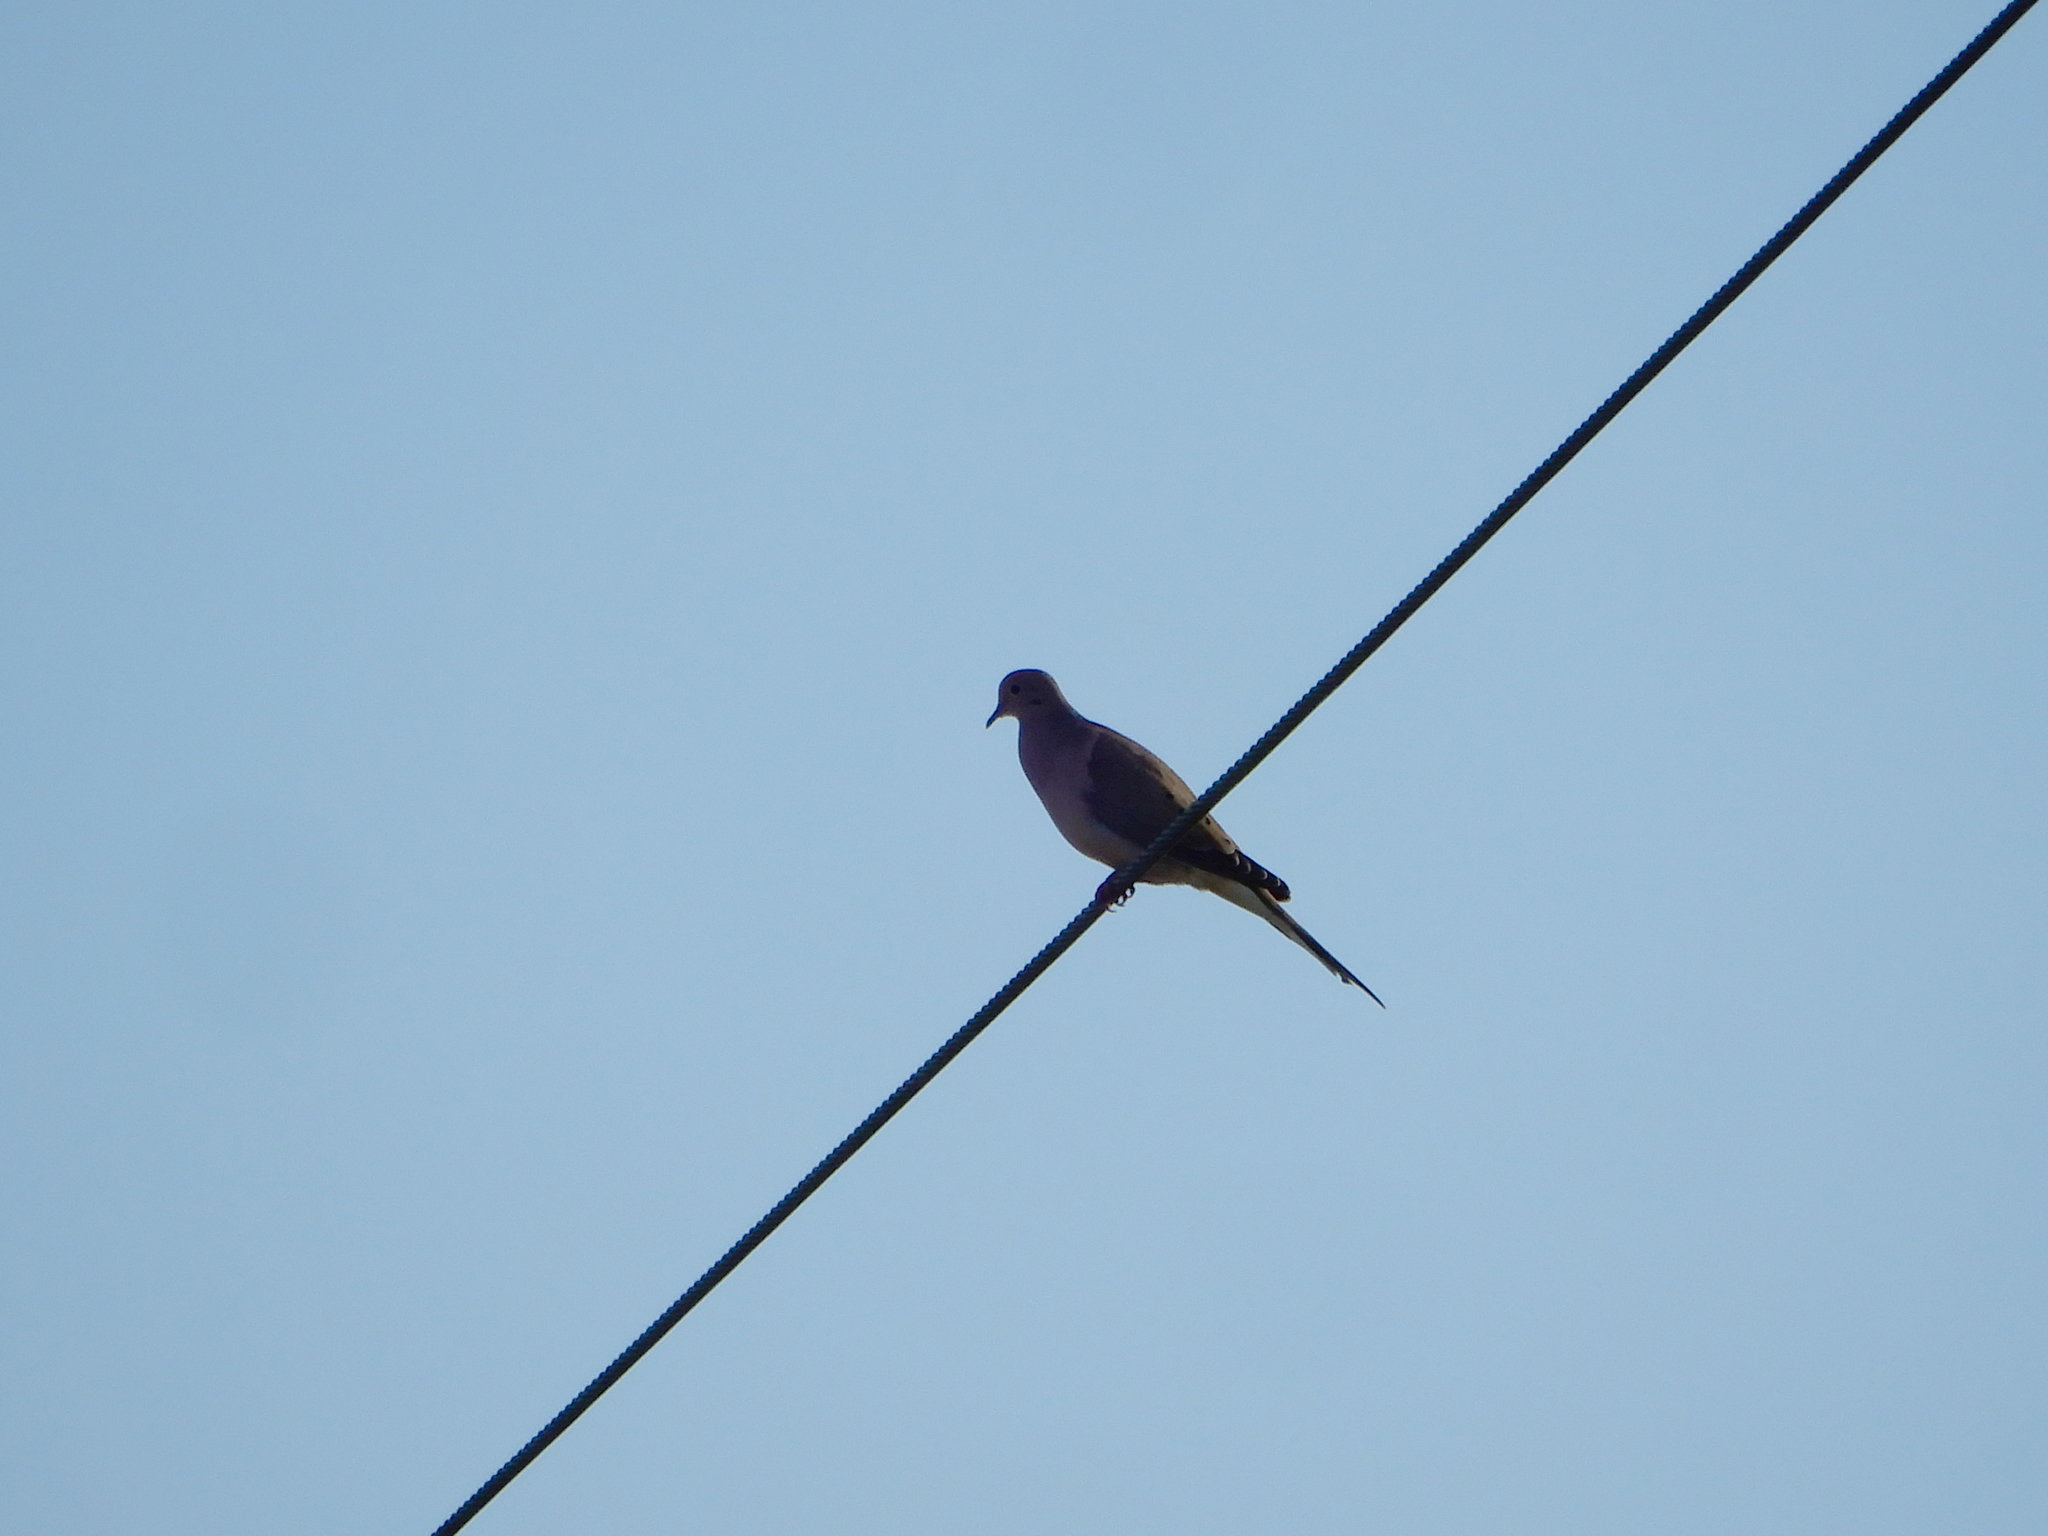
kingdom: Animalia
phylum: Chordata
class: Aves
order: Columbiformes
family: Columbidae
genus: Zenaida
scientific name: Zenaida macroura
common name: Mourning dove
